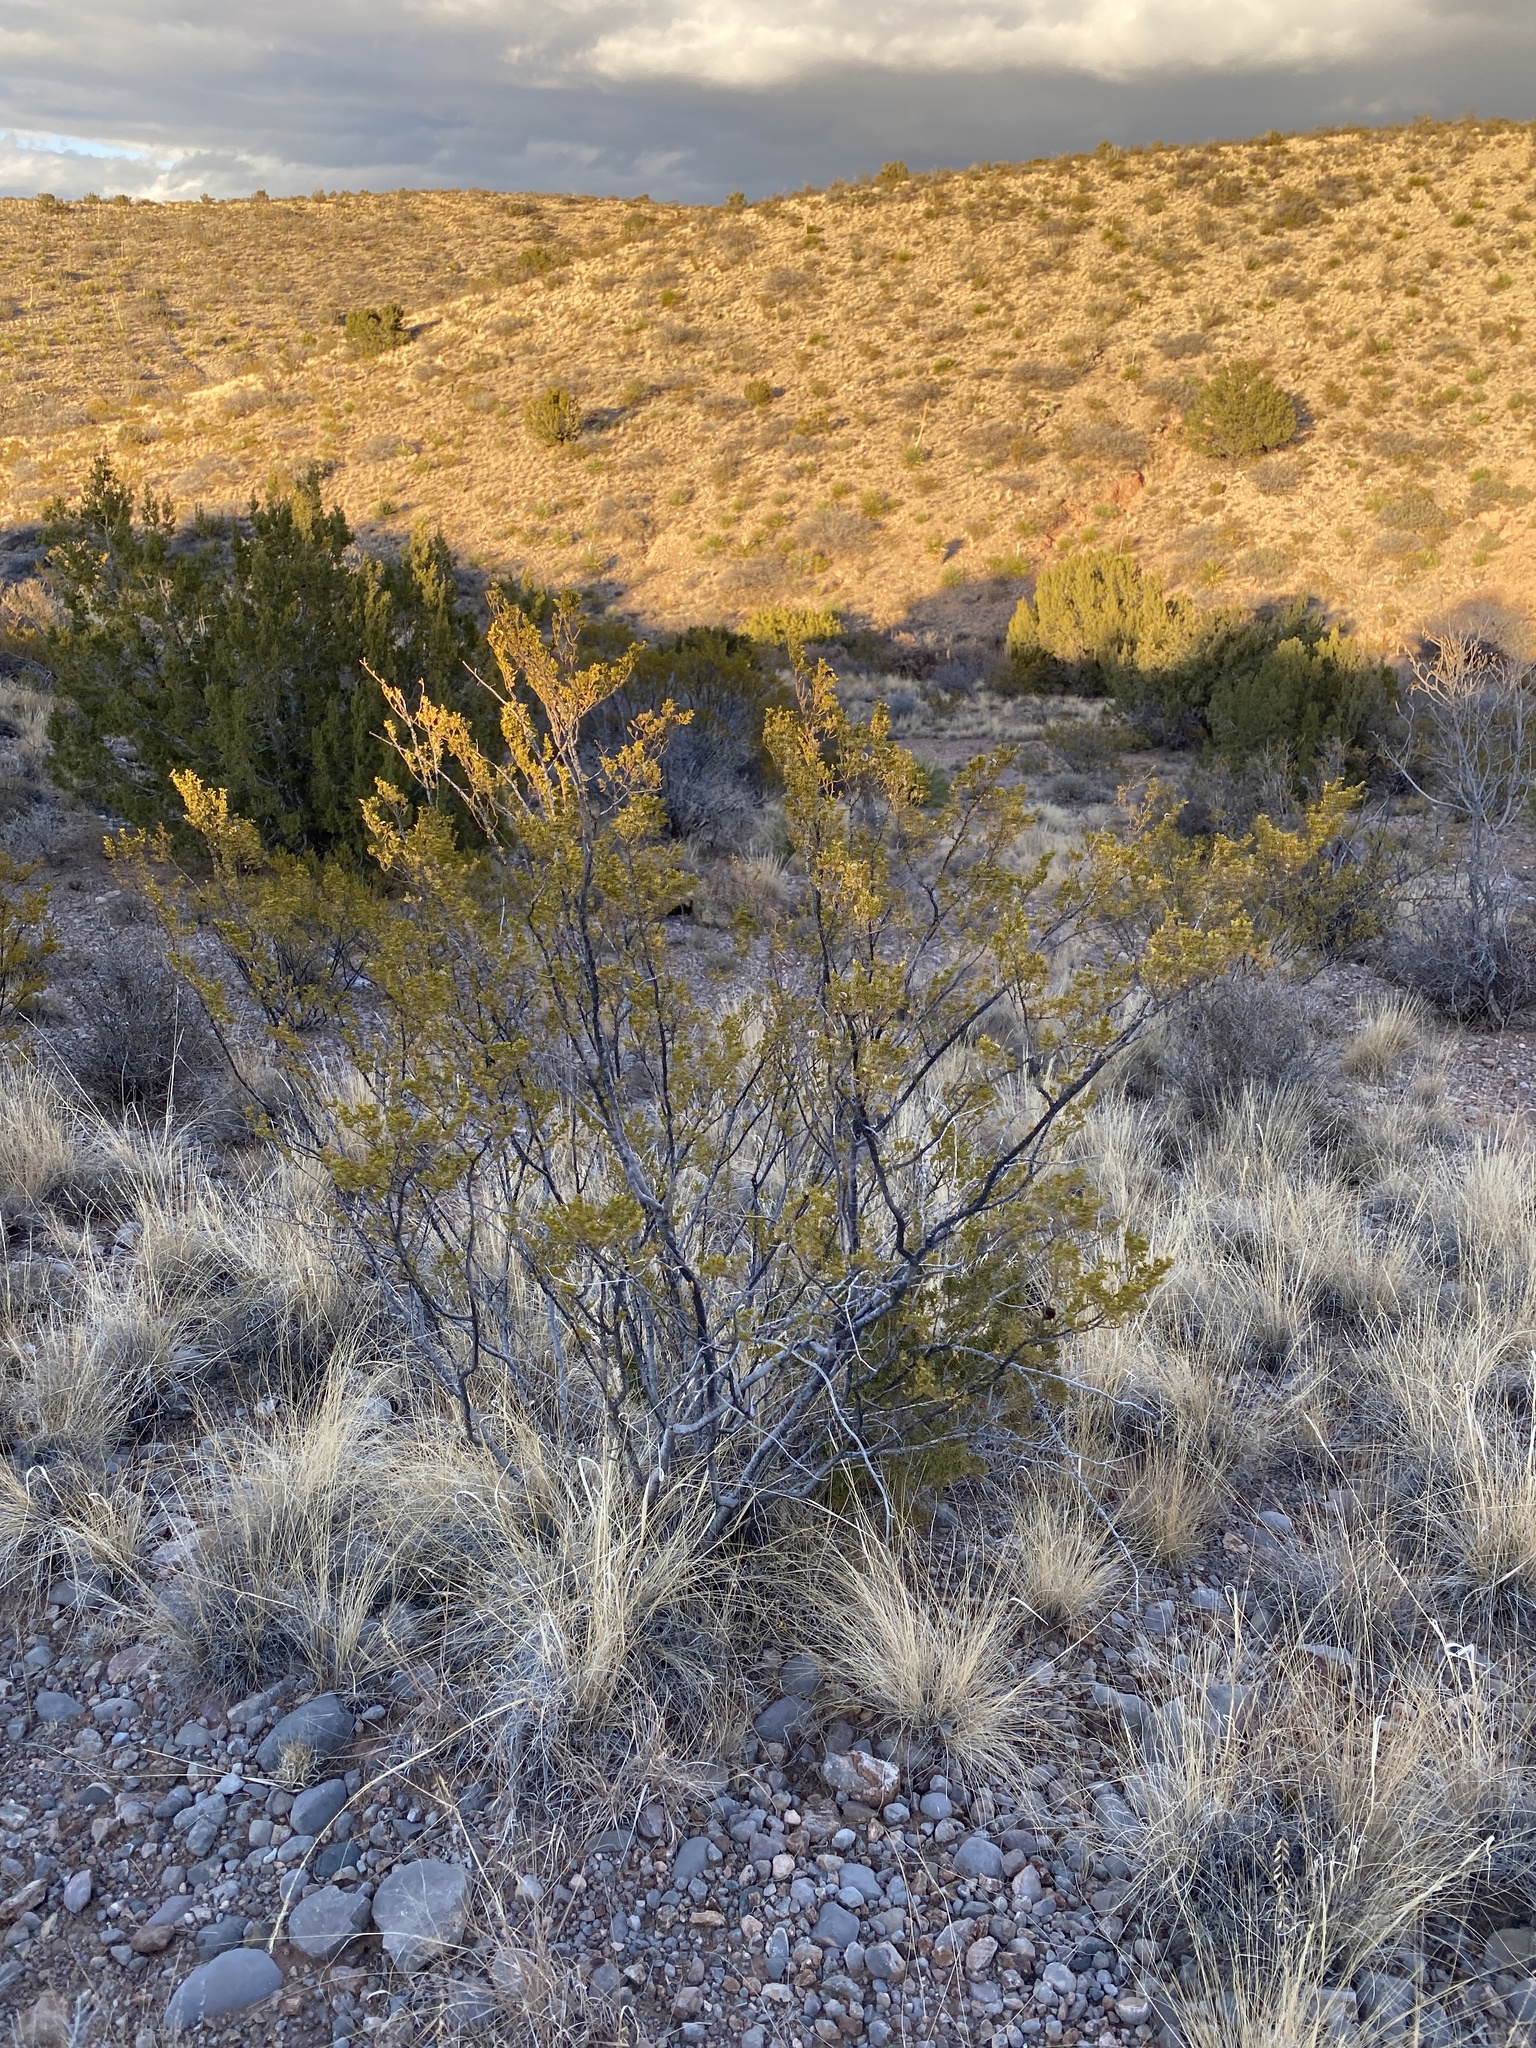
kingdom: Plantae
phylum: Tracheophyta
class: Magnoliopsida
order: Zygophyllales
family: Zygophyllaceae
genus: Larrea
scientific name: Larrea tridentata
